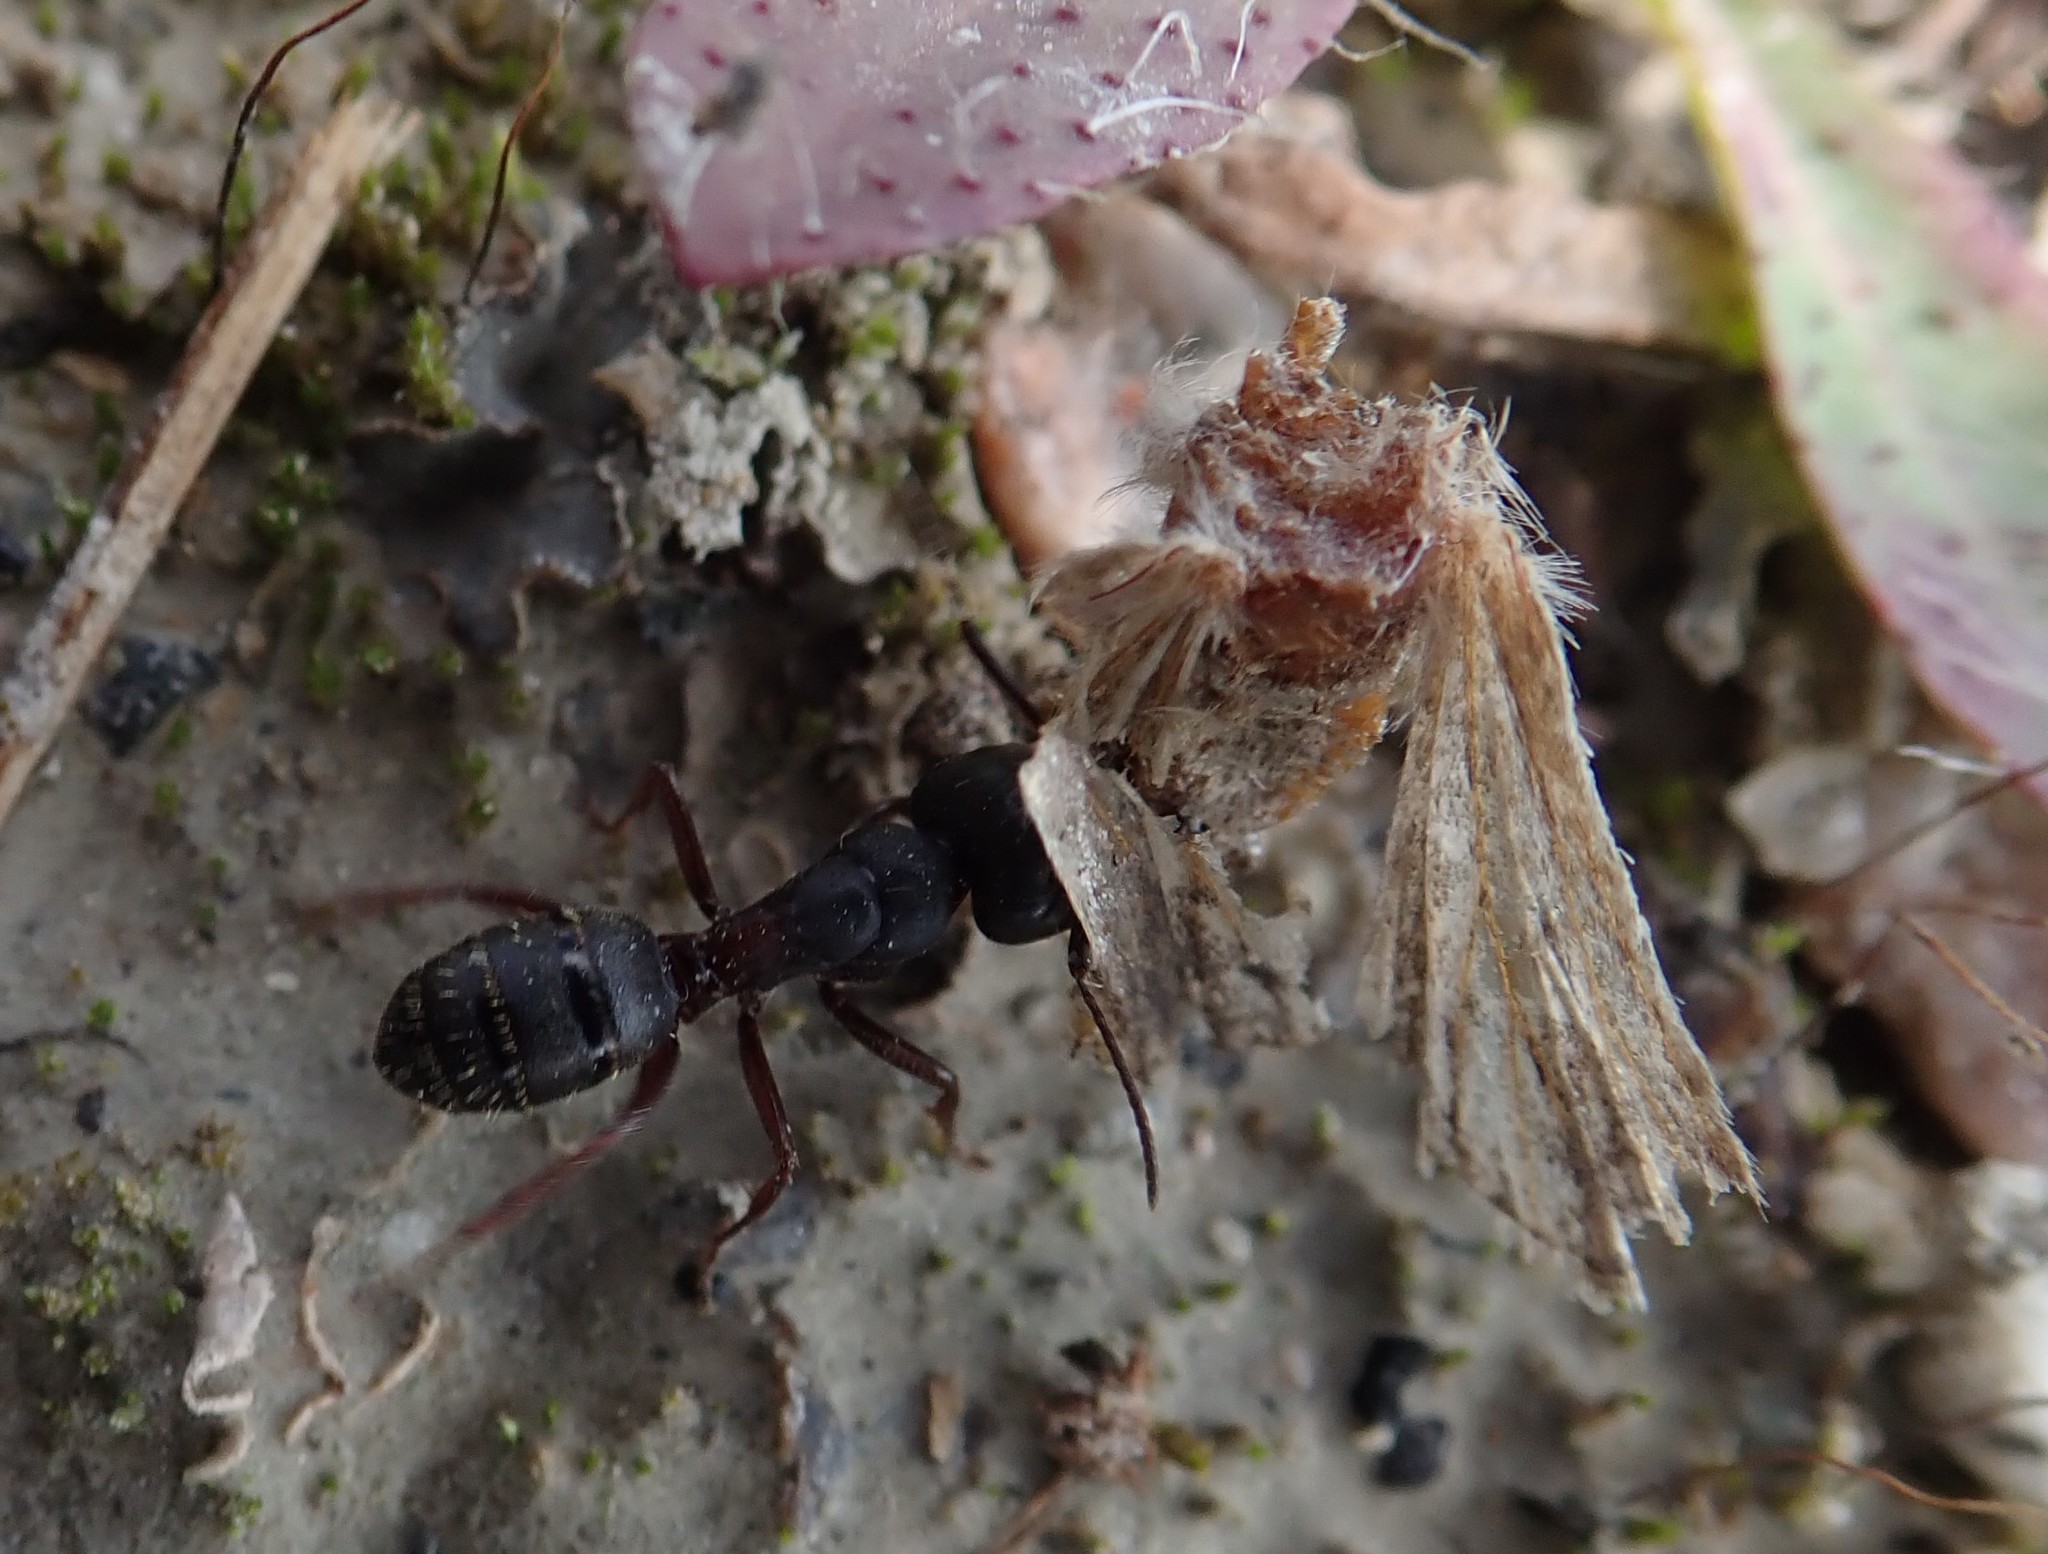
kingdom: Animalia
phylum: Arthropoda
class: Insecta
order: Hymenoptera
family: Formicidae
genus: Camponotus
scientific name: Camponotus herculeanus
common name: Hercules ant
